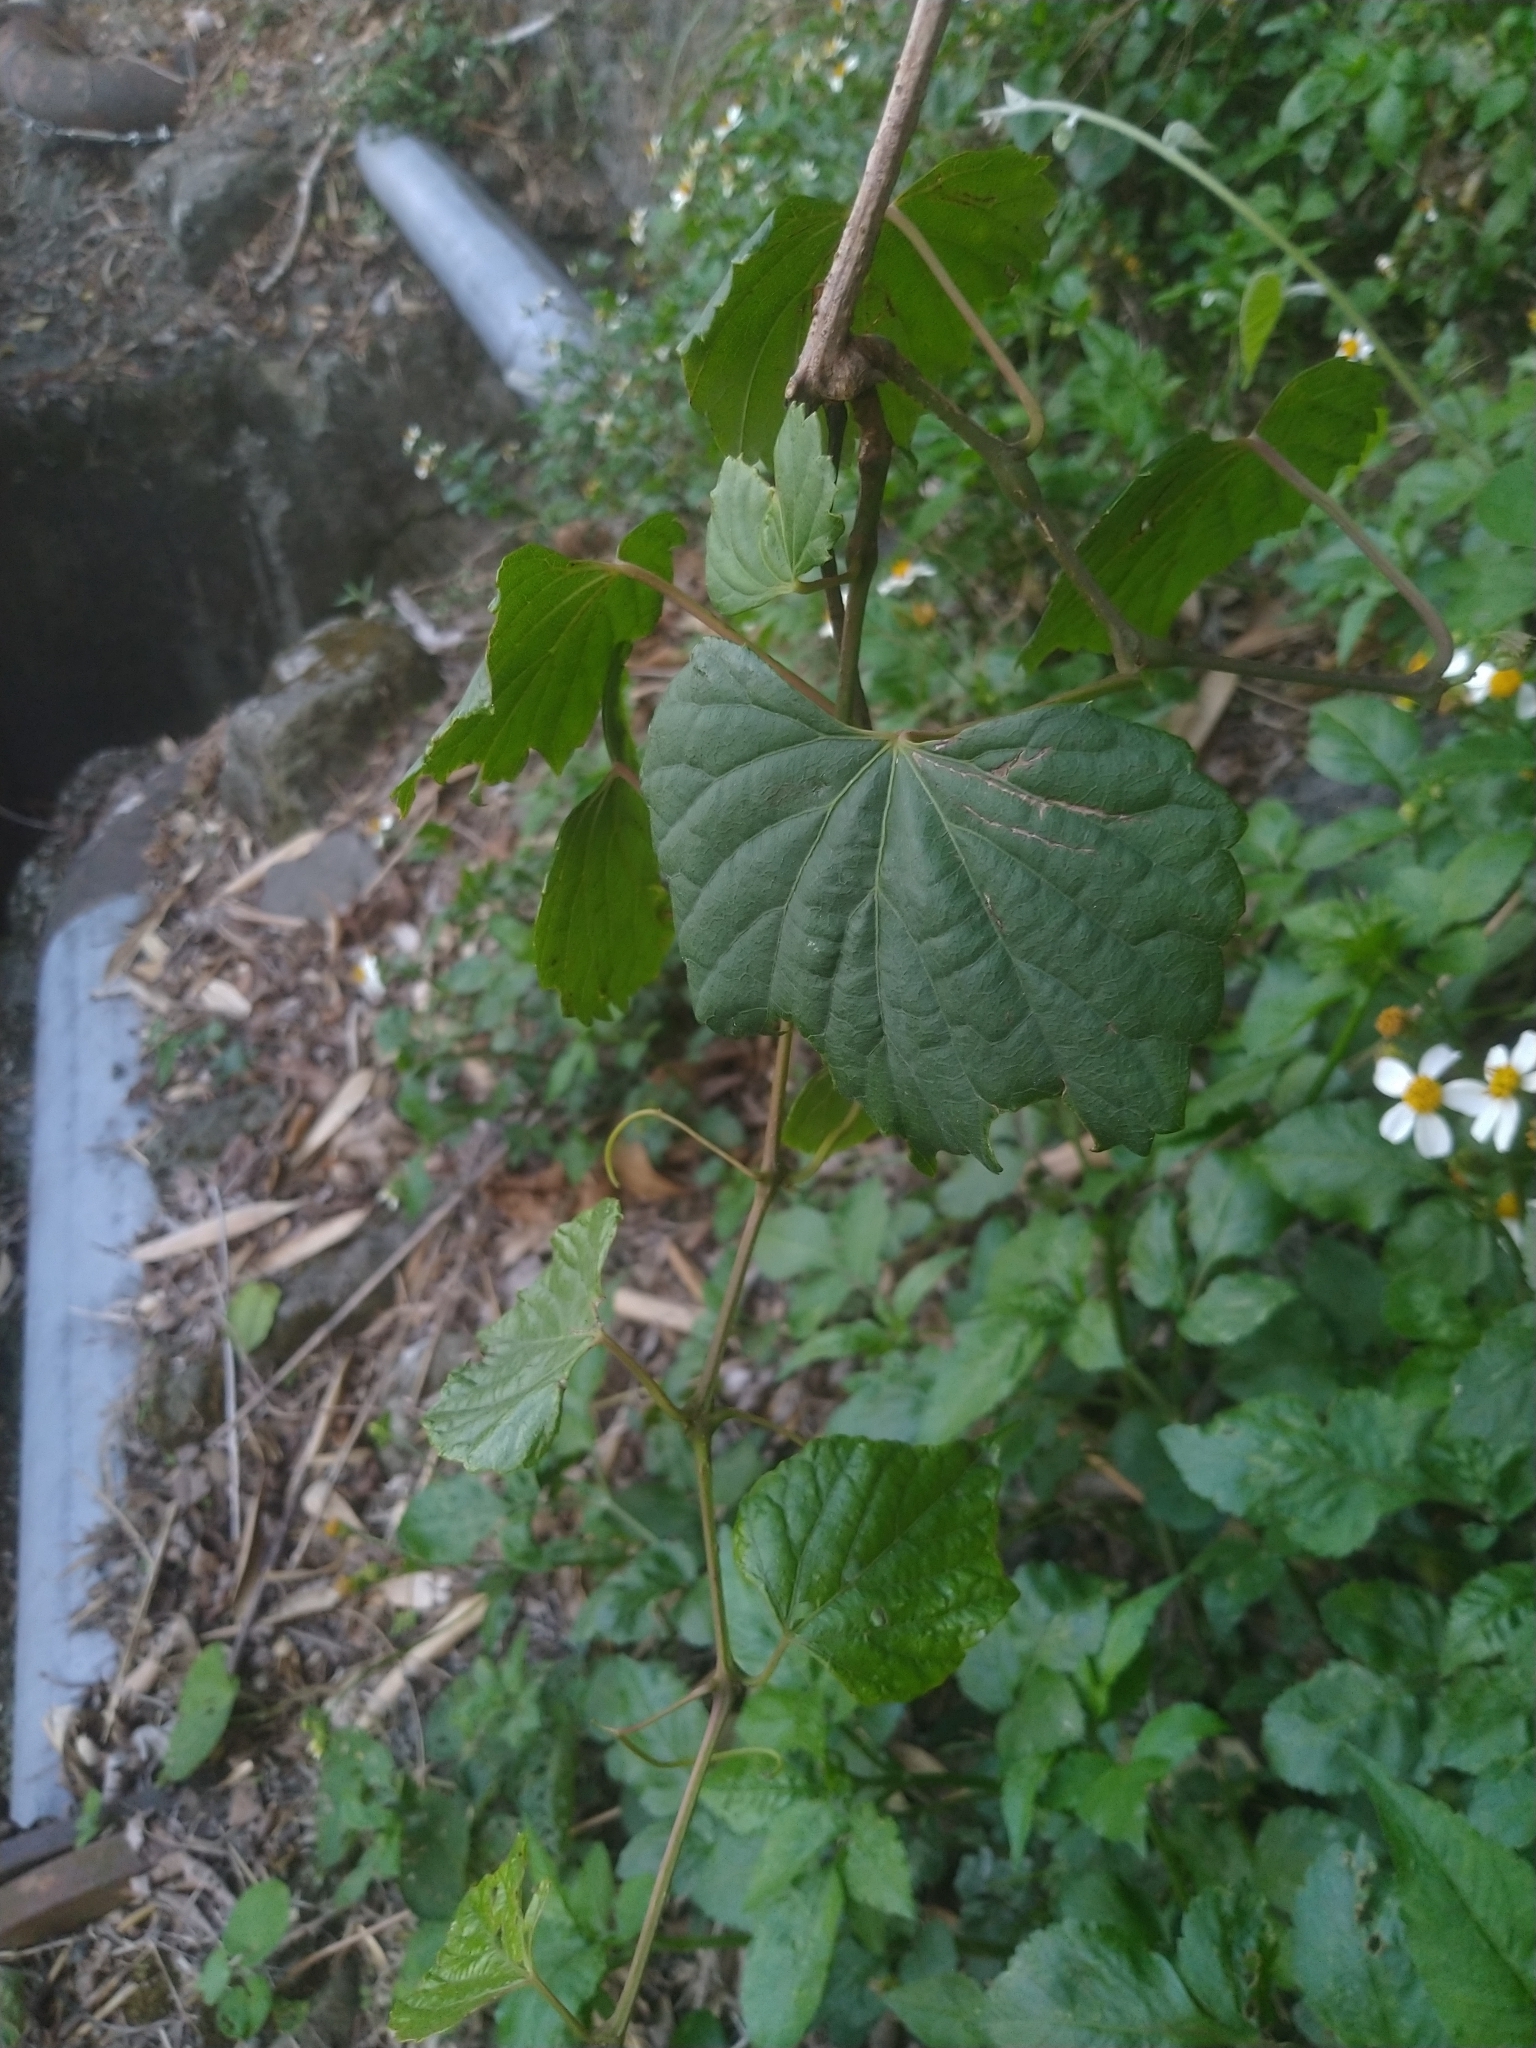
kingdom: Plantae
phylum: Tracheophyta
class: Magnoliopsida
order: Vitales
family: Vitaceae
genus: Ampelopsis
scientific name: Ampelopsis glandulosa
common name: Amur peppervine
